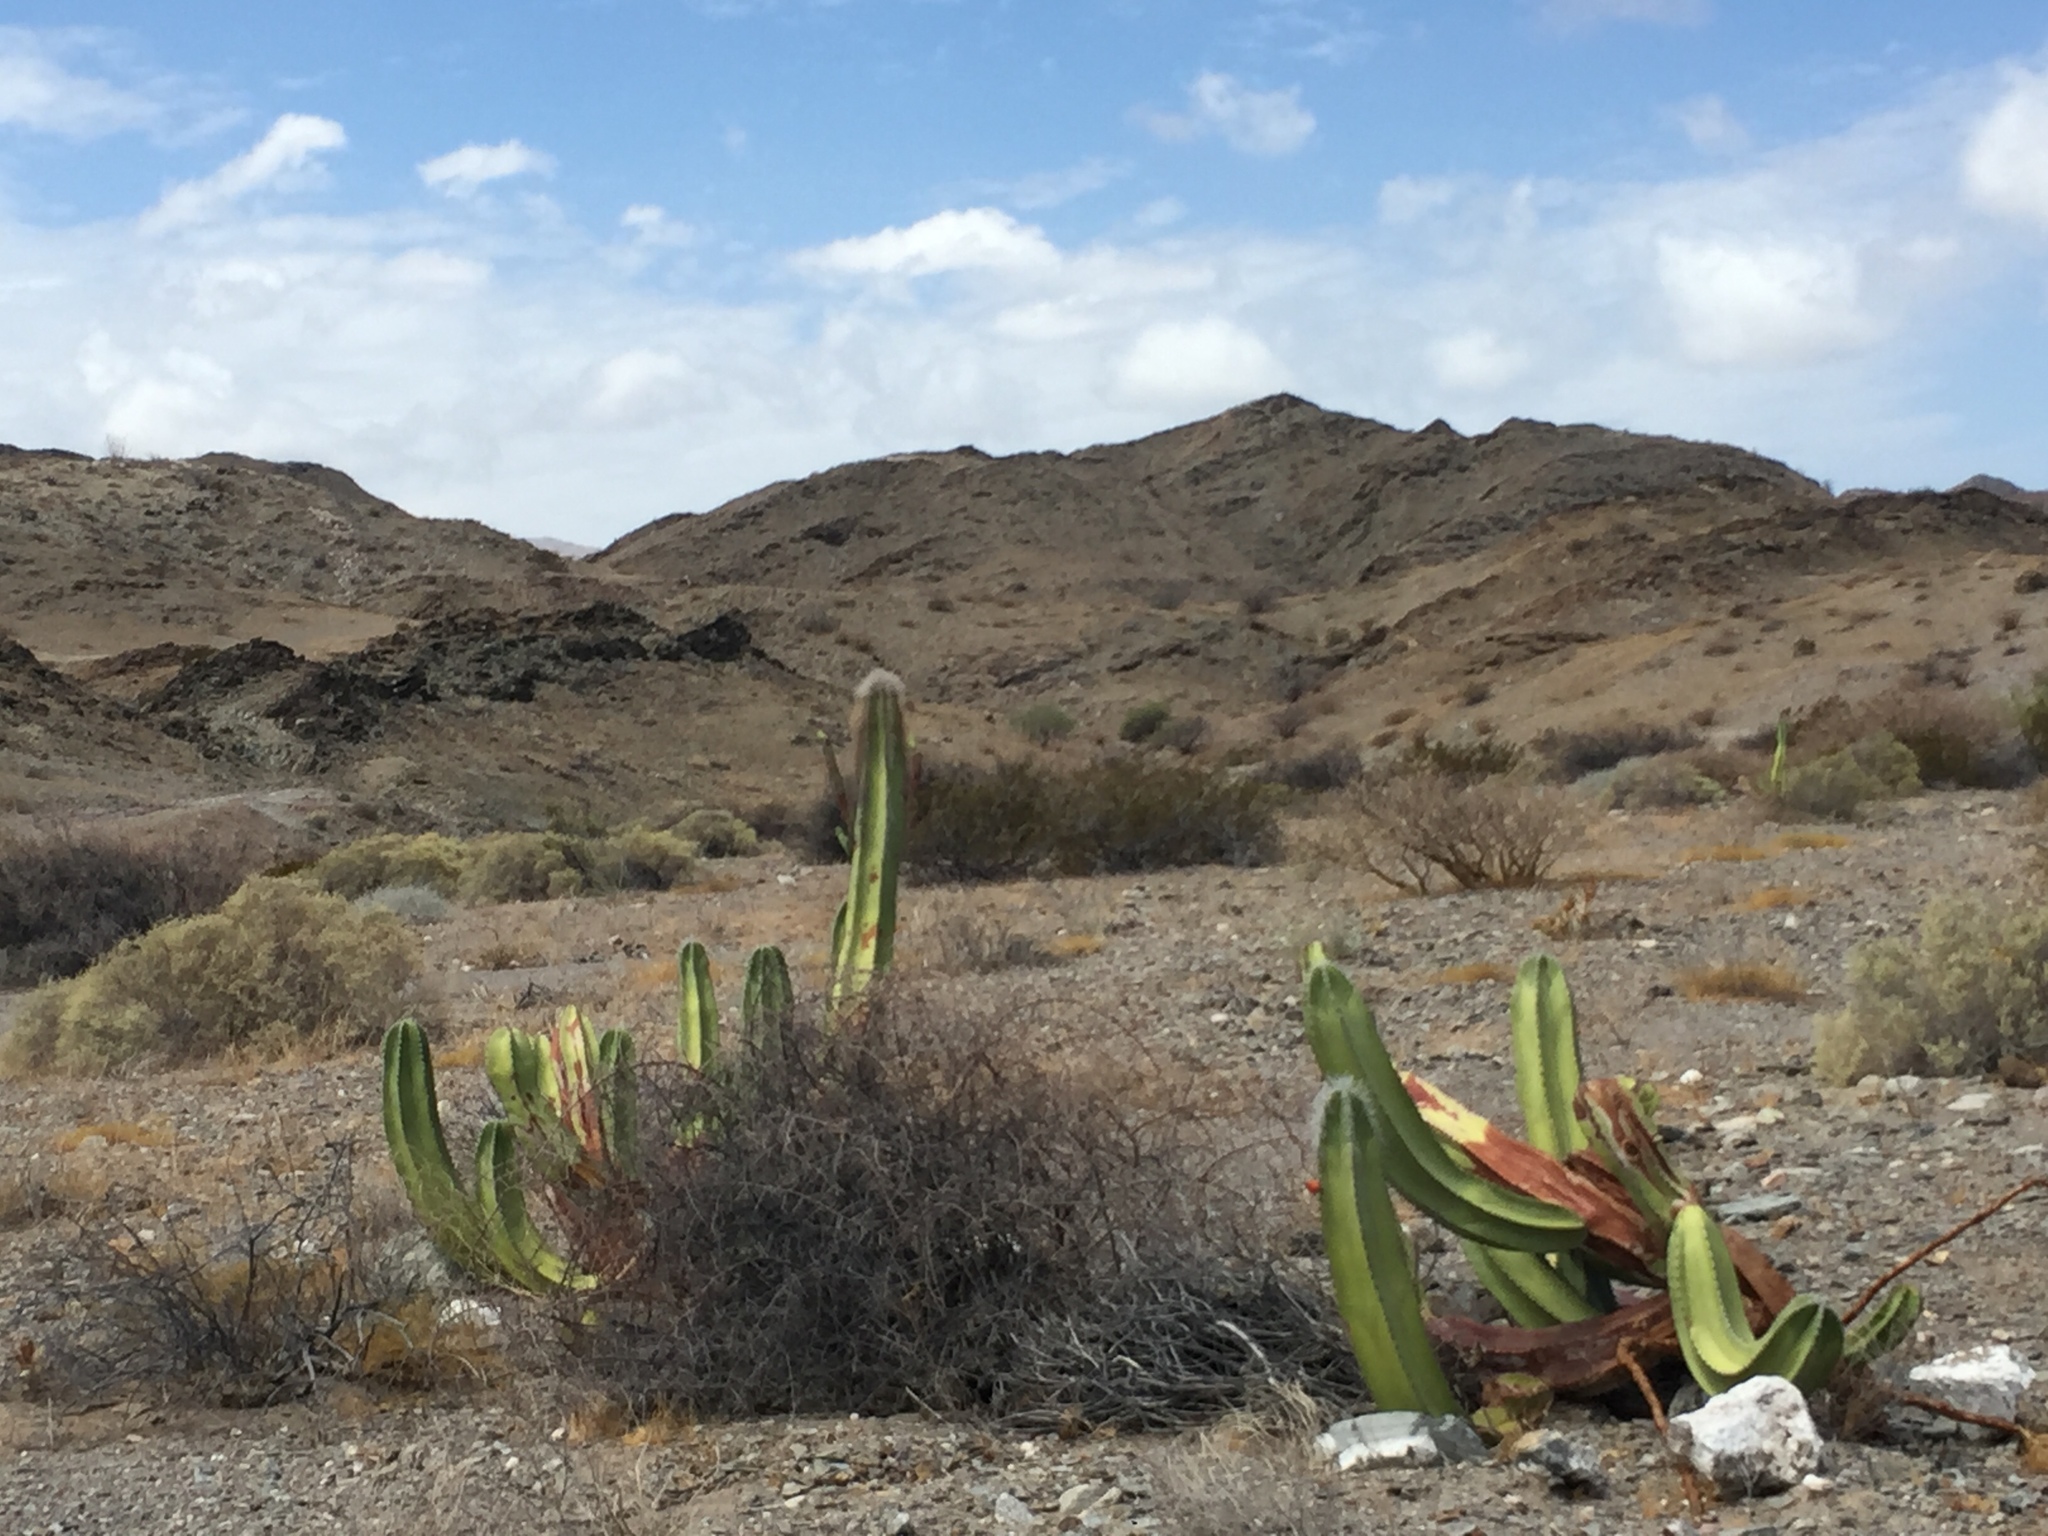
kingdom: Plantae
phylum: Tracheophyta
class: Magnoliopsida
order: Caryophyllales
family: Cactaceae
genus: Pachycereus
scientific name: Pachycereus schottii
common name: Senita cactus
